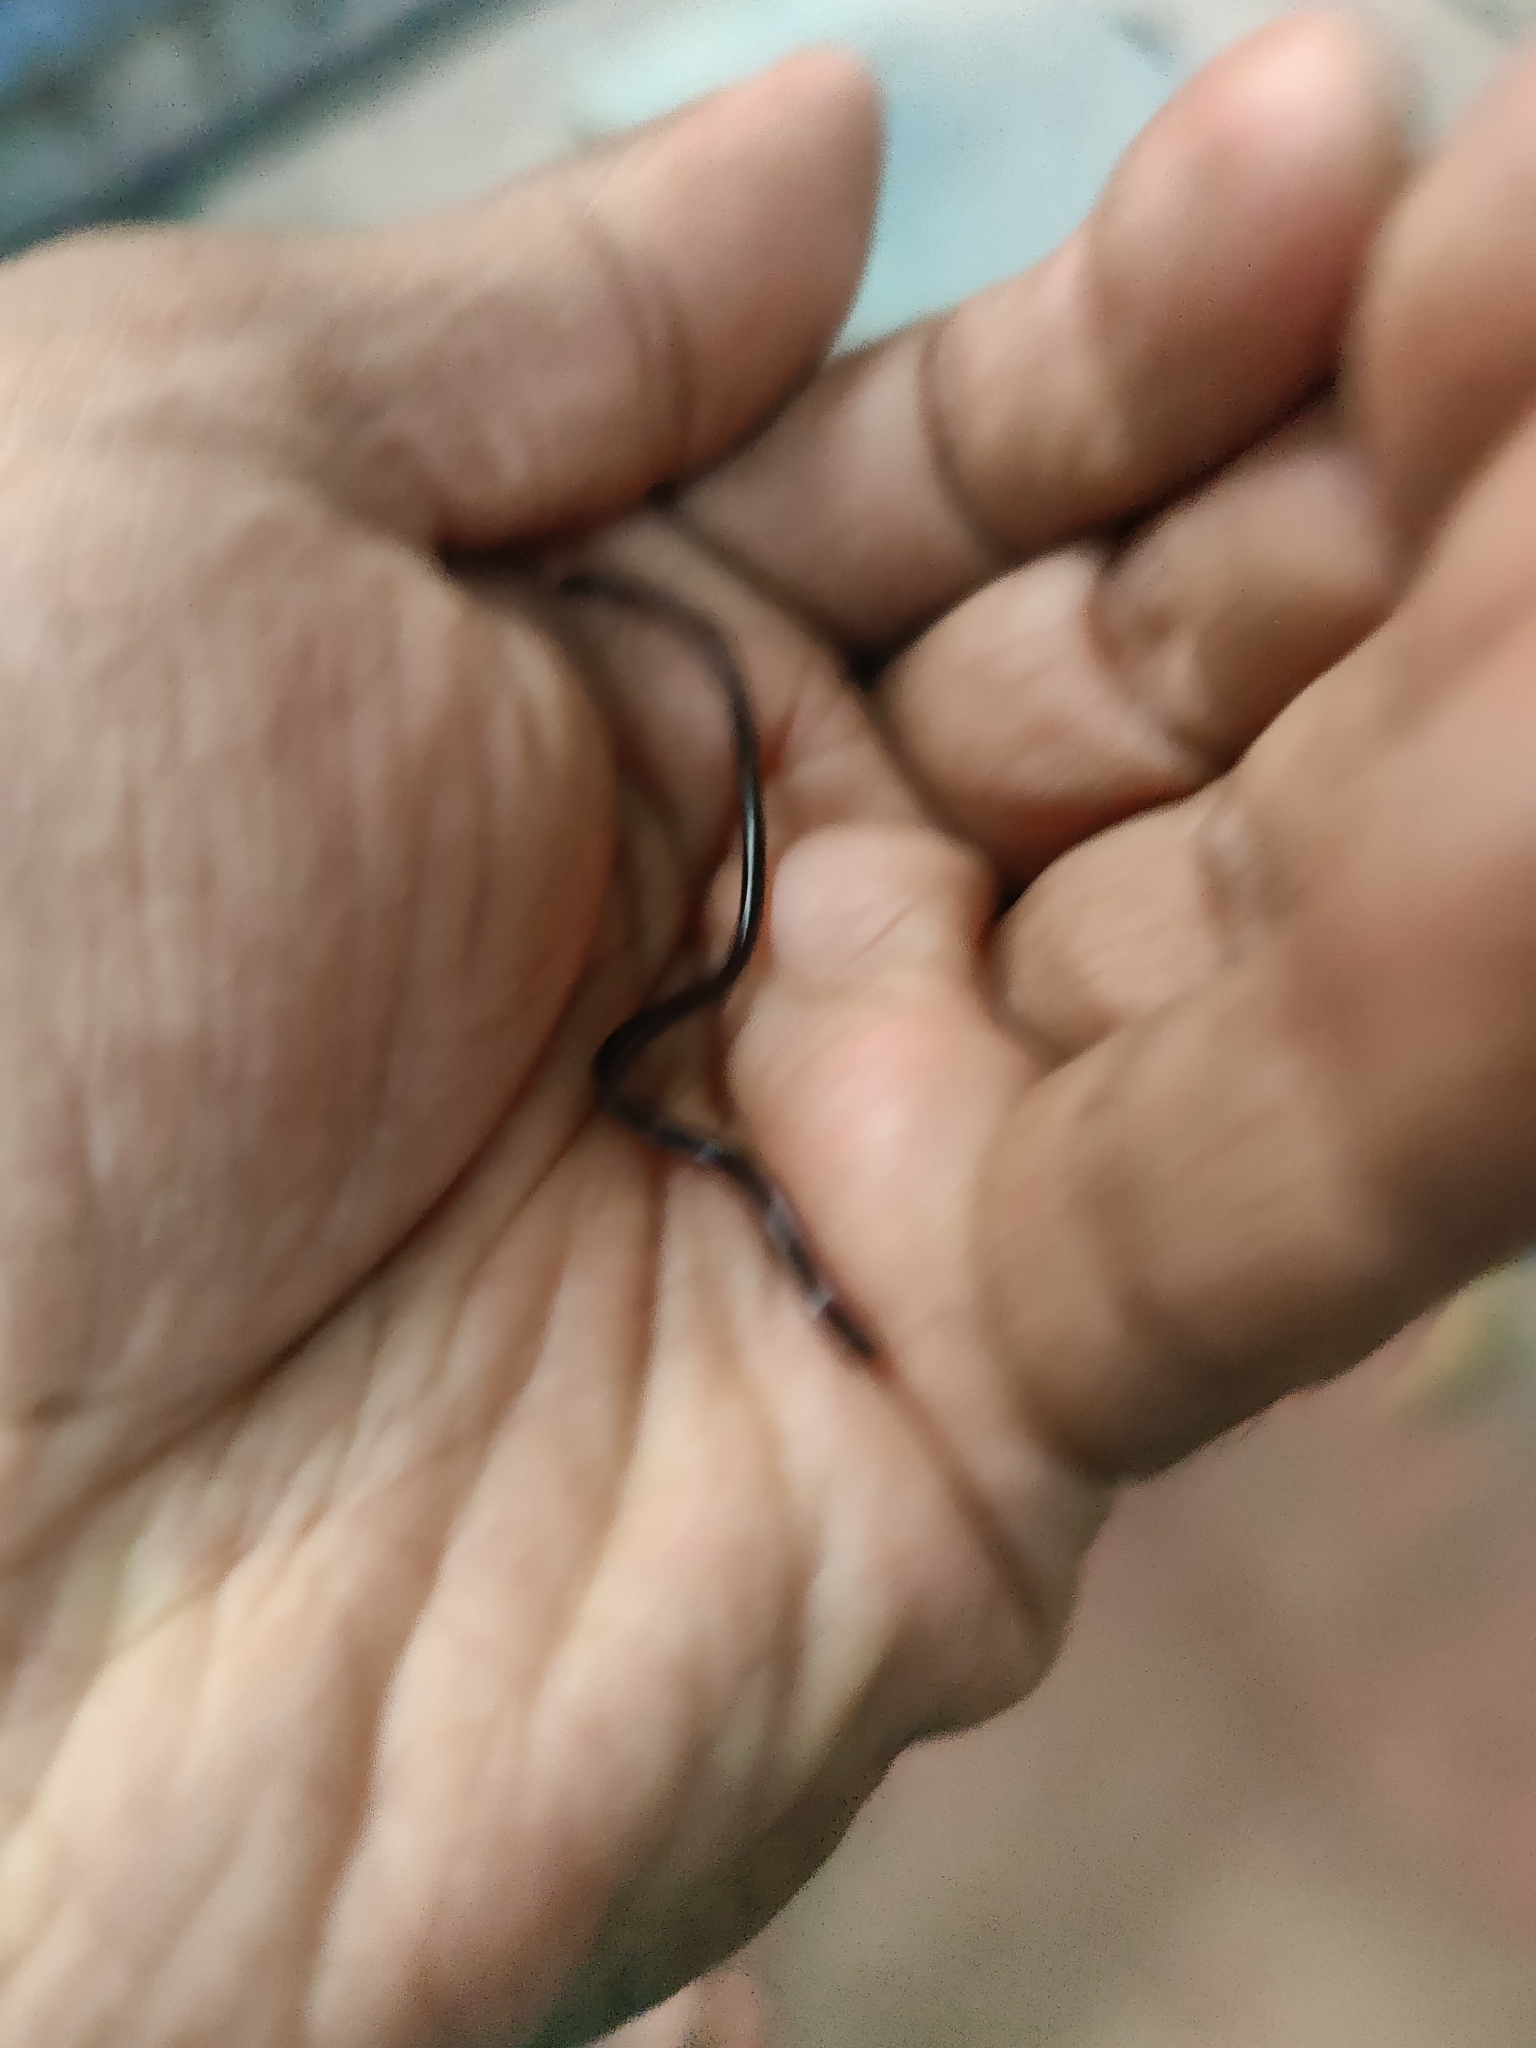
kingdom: Animalia
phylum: Chordata
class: Squamata
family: Typhlopidae
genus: Indotyphlops
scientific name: Indotyphlops braminus
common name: Brahminy blindsnake
